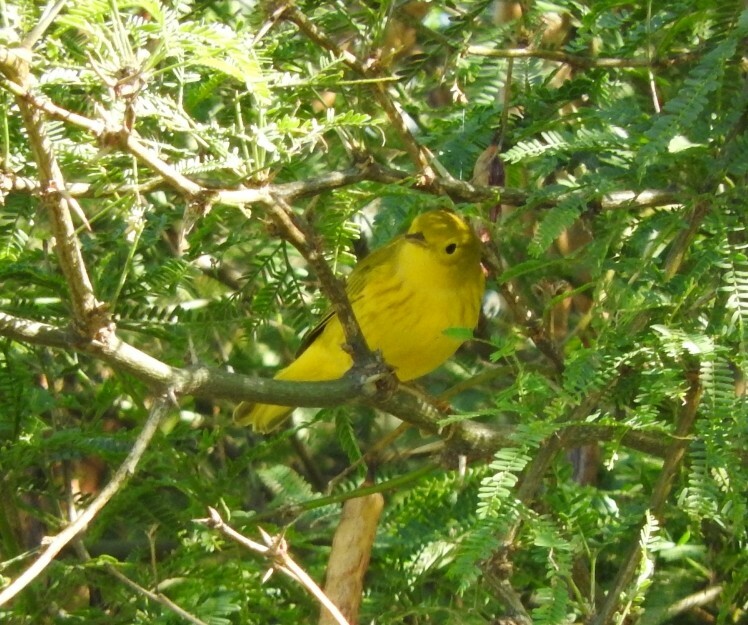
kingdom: Animalia
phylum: Chordata
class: Aves
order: Passeriformes
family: Parulidae
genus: Setophaga
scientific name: Setophaga petechia
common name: Yellow warbler
